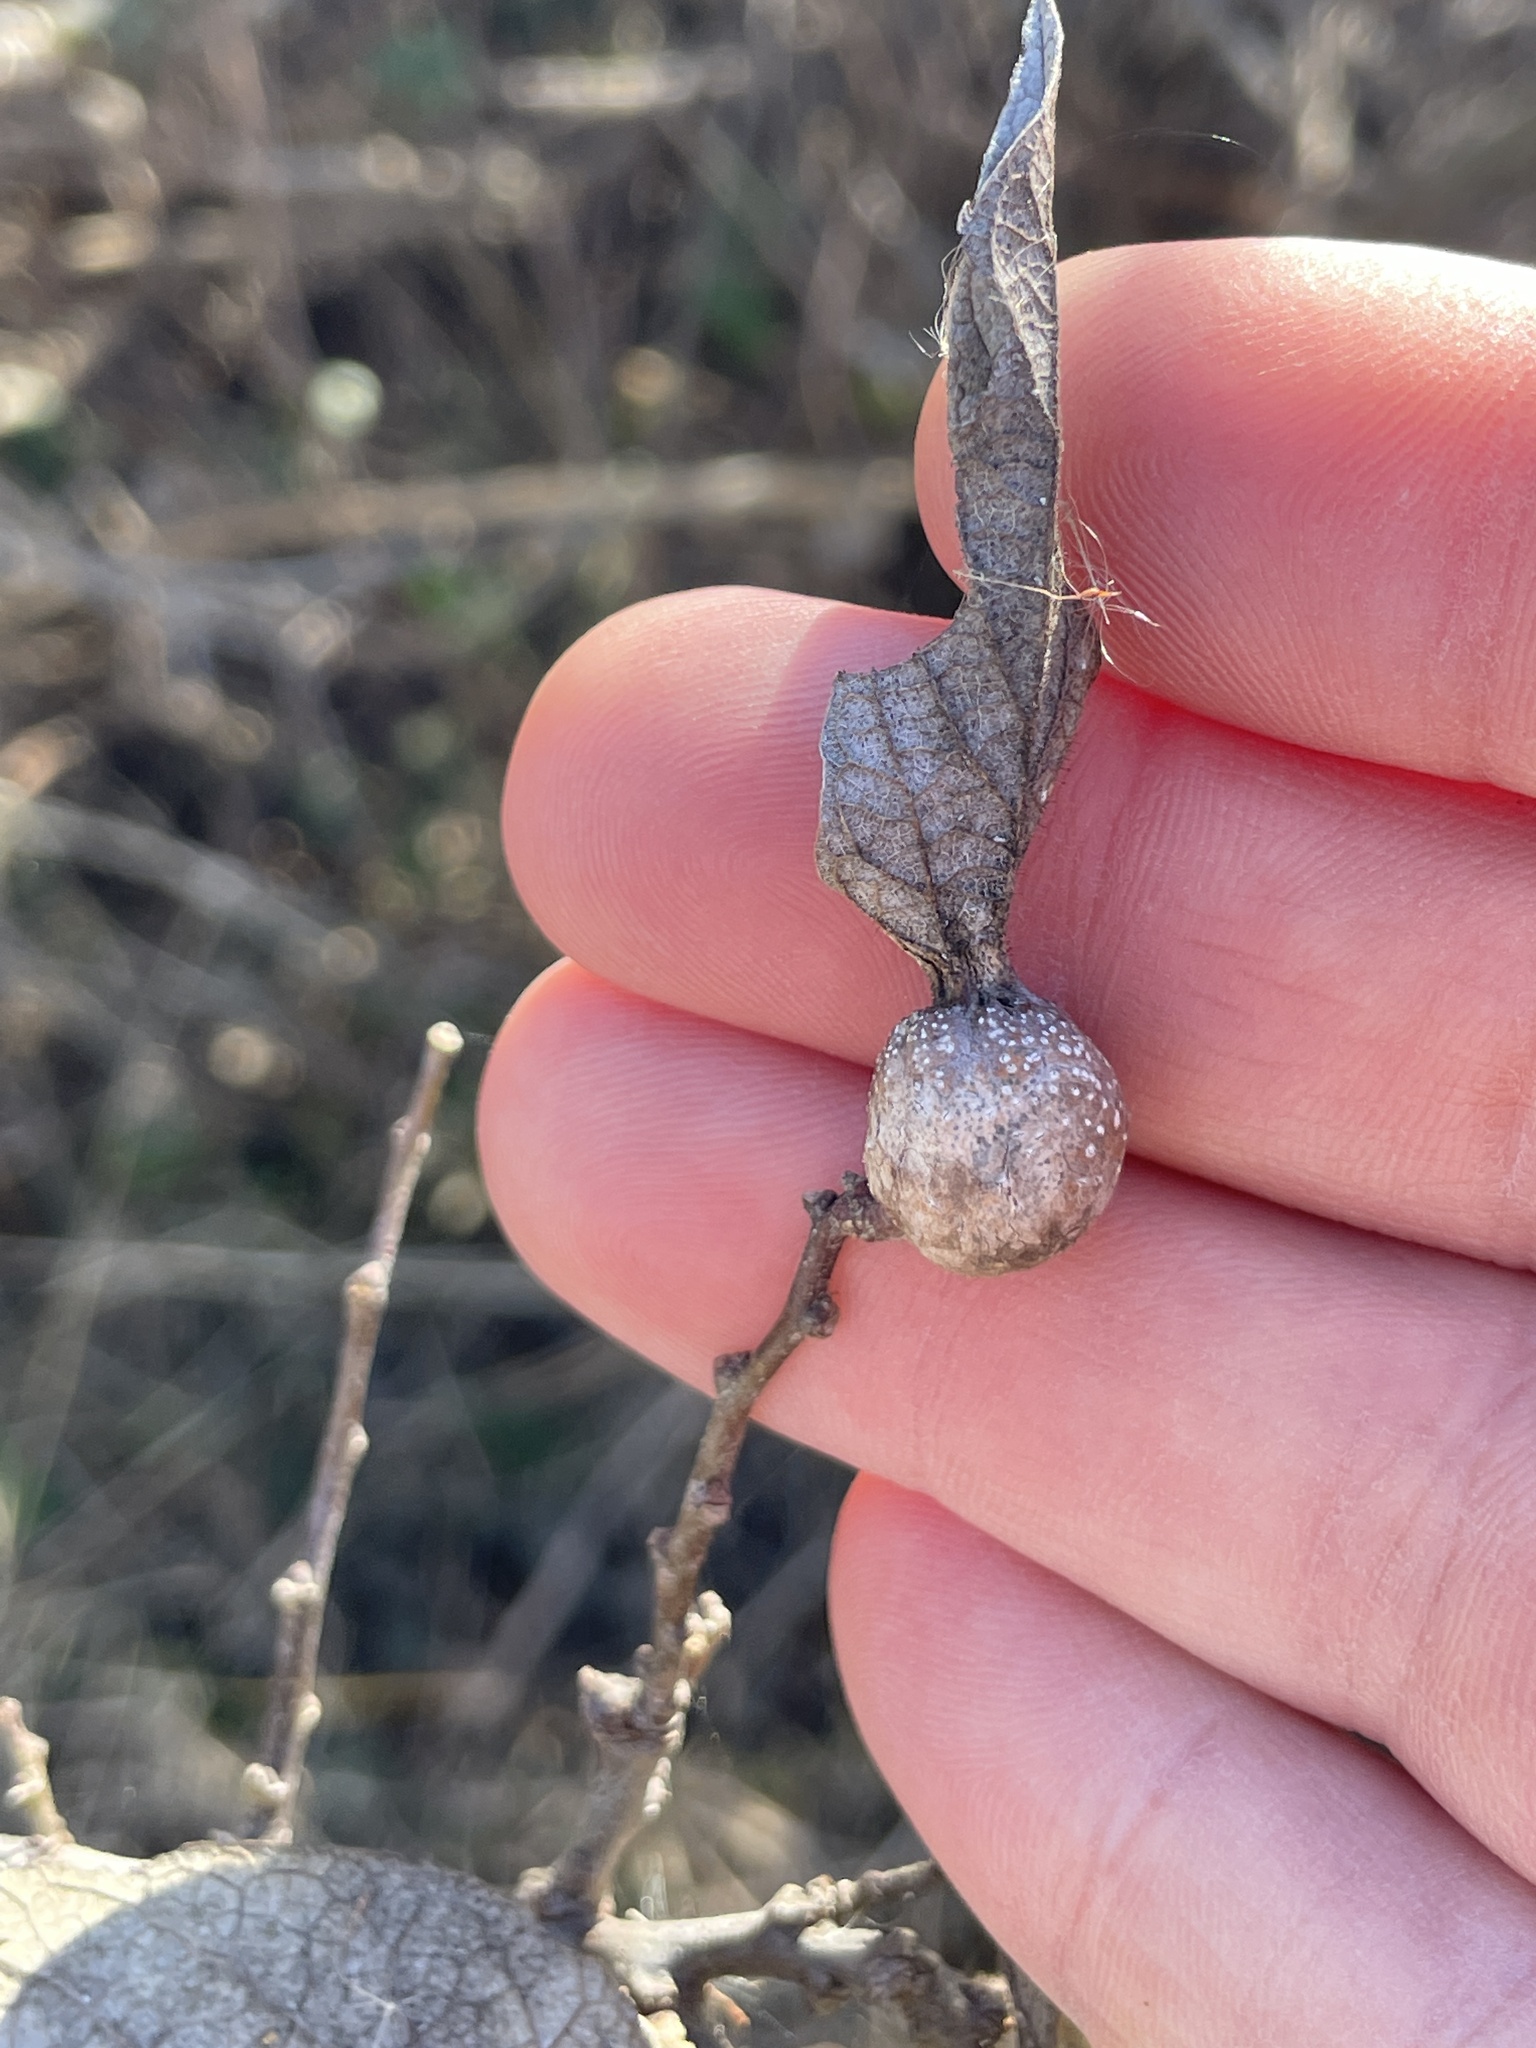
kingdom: Animalia
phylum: Arthropoda
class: Insecta
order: Hemiptera
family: Aphalaridae
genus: Pachypsylla
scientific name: Pachypsylla venusta
